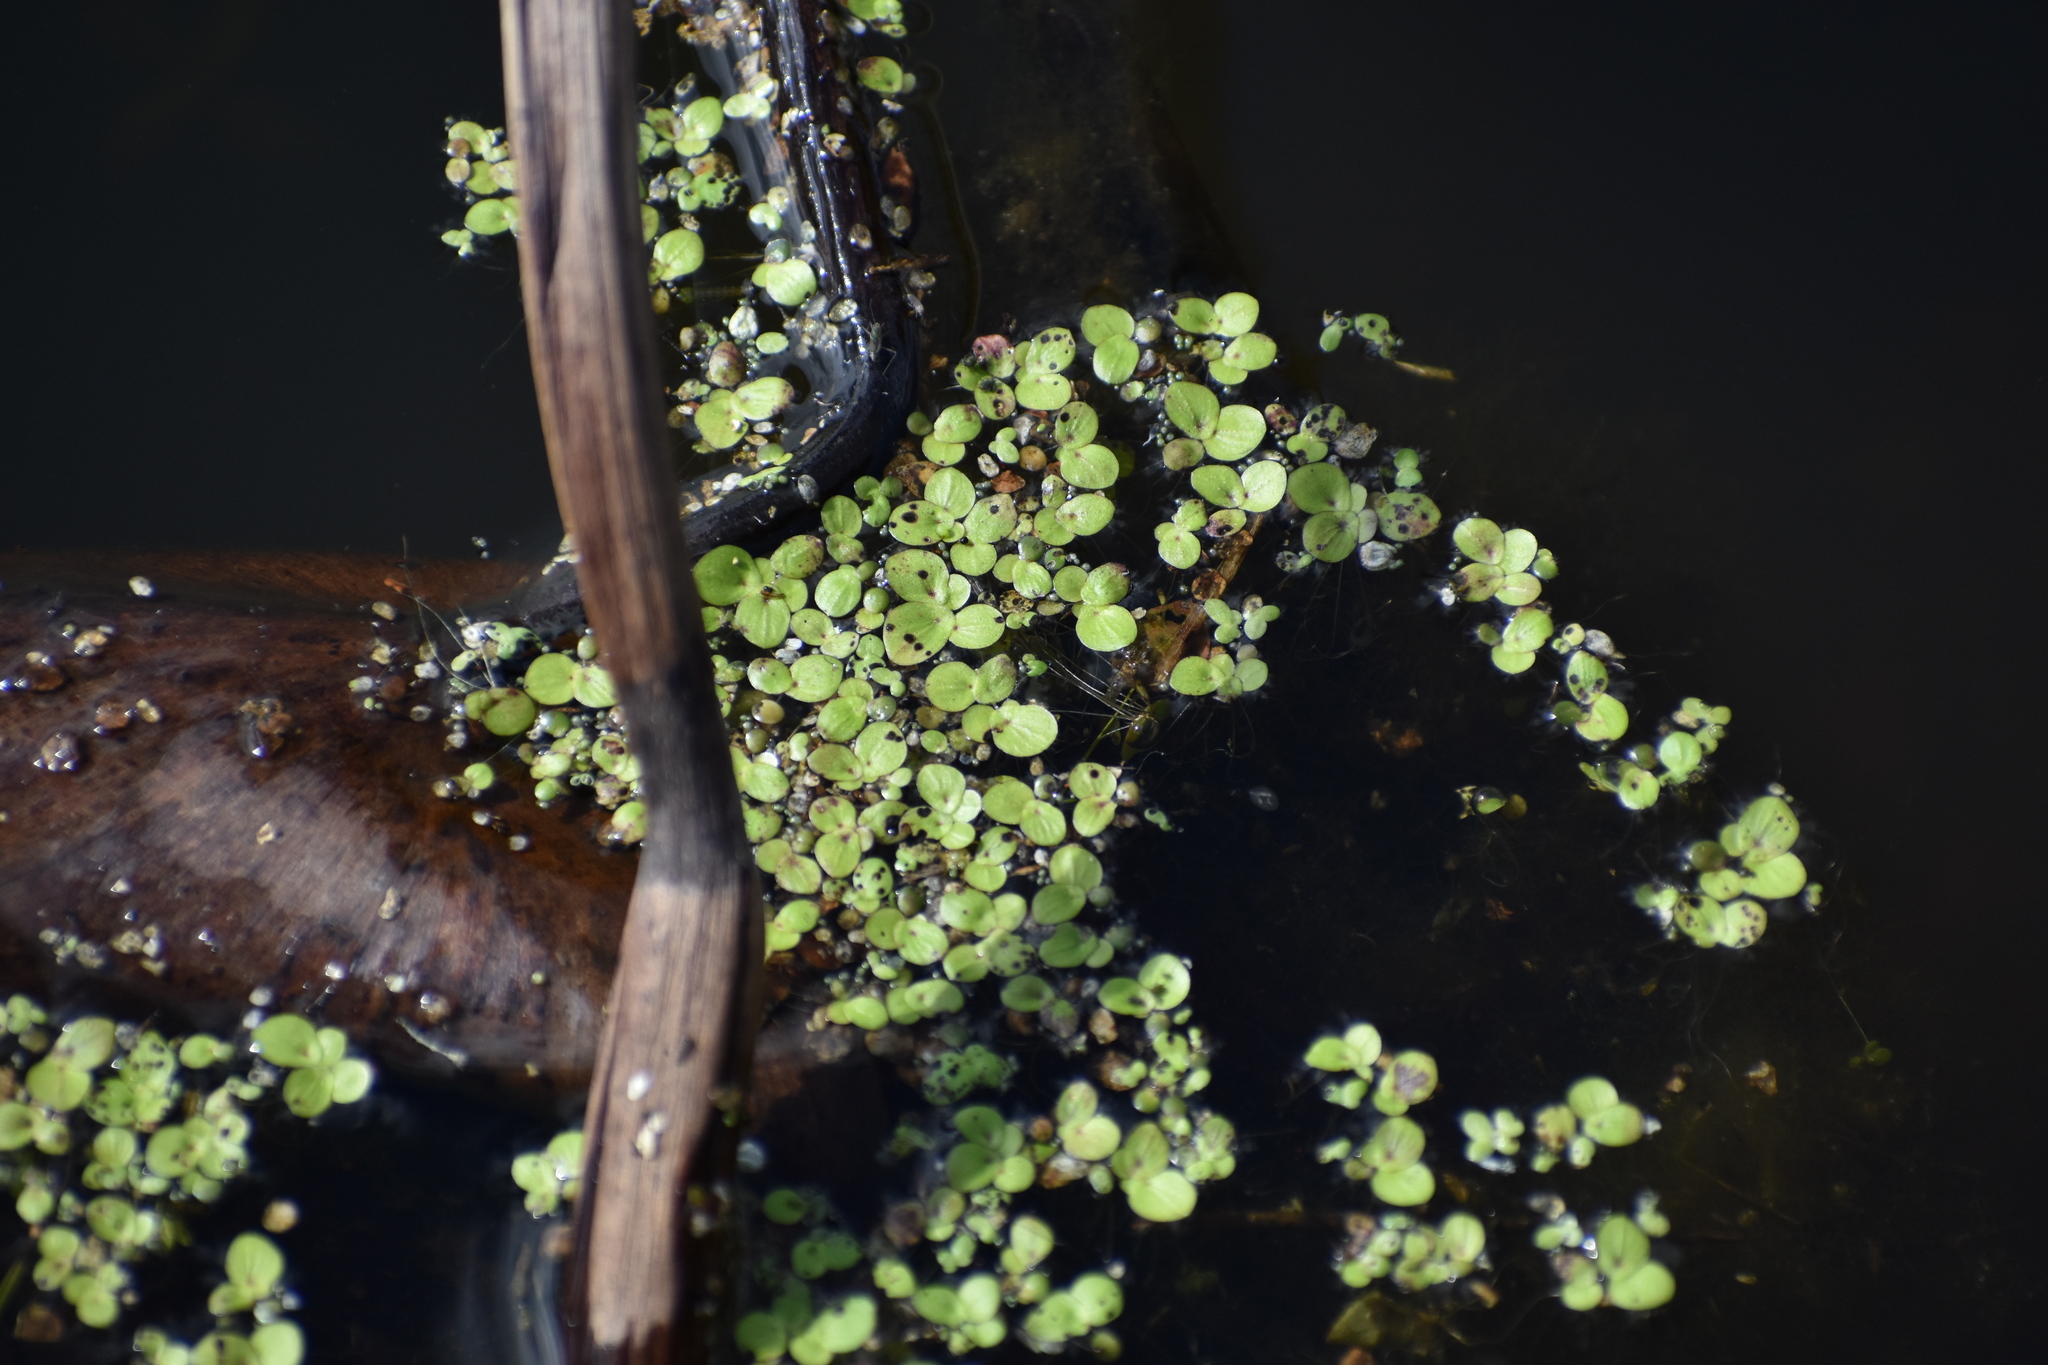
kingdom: Plantae
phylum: Tracheophyta
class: Liliopsida
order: Alismatales
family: Araceae
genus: Spirodela
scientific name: Spirodela polyrhiza
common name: Great duckweed
